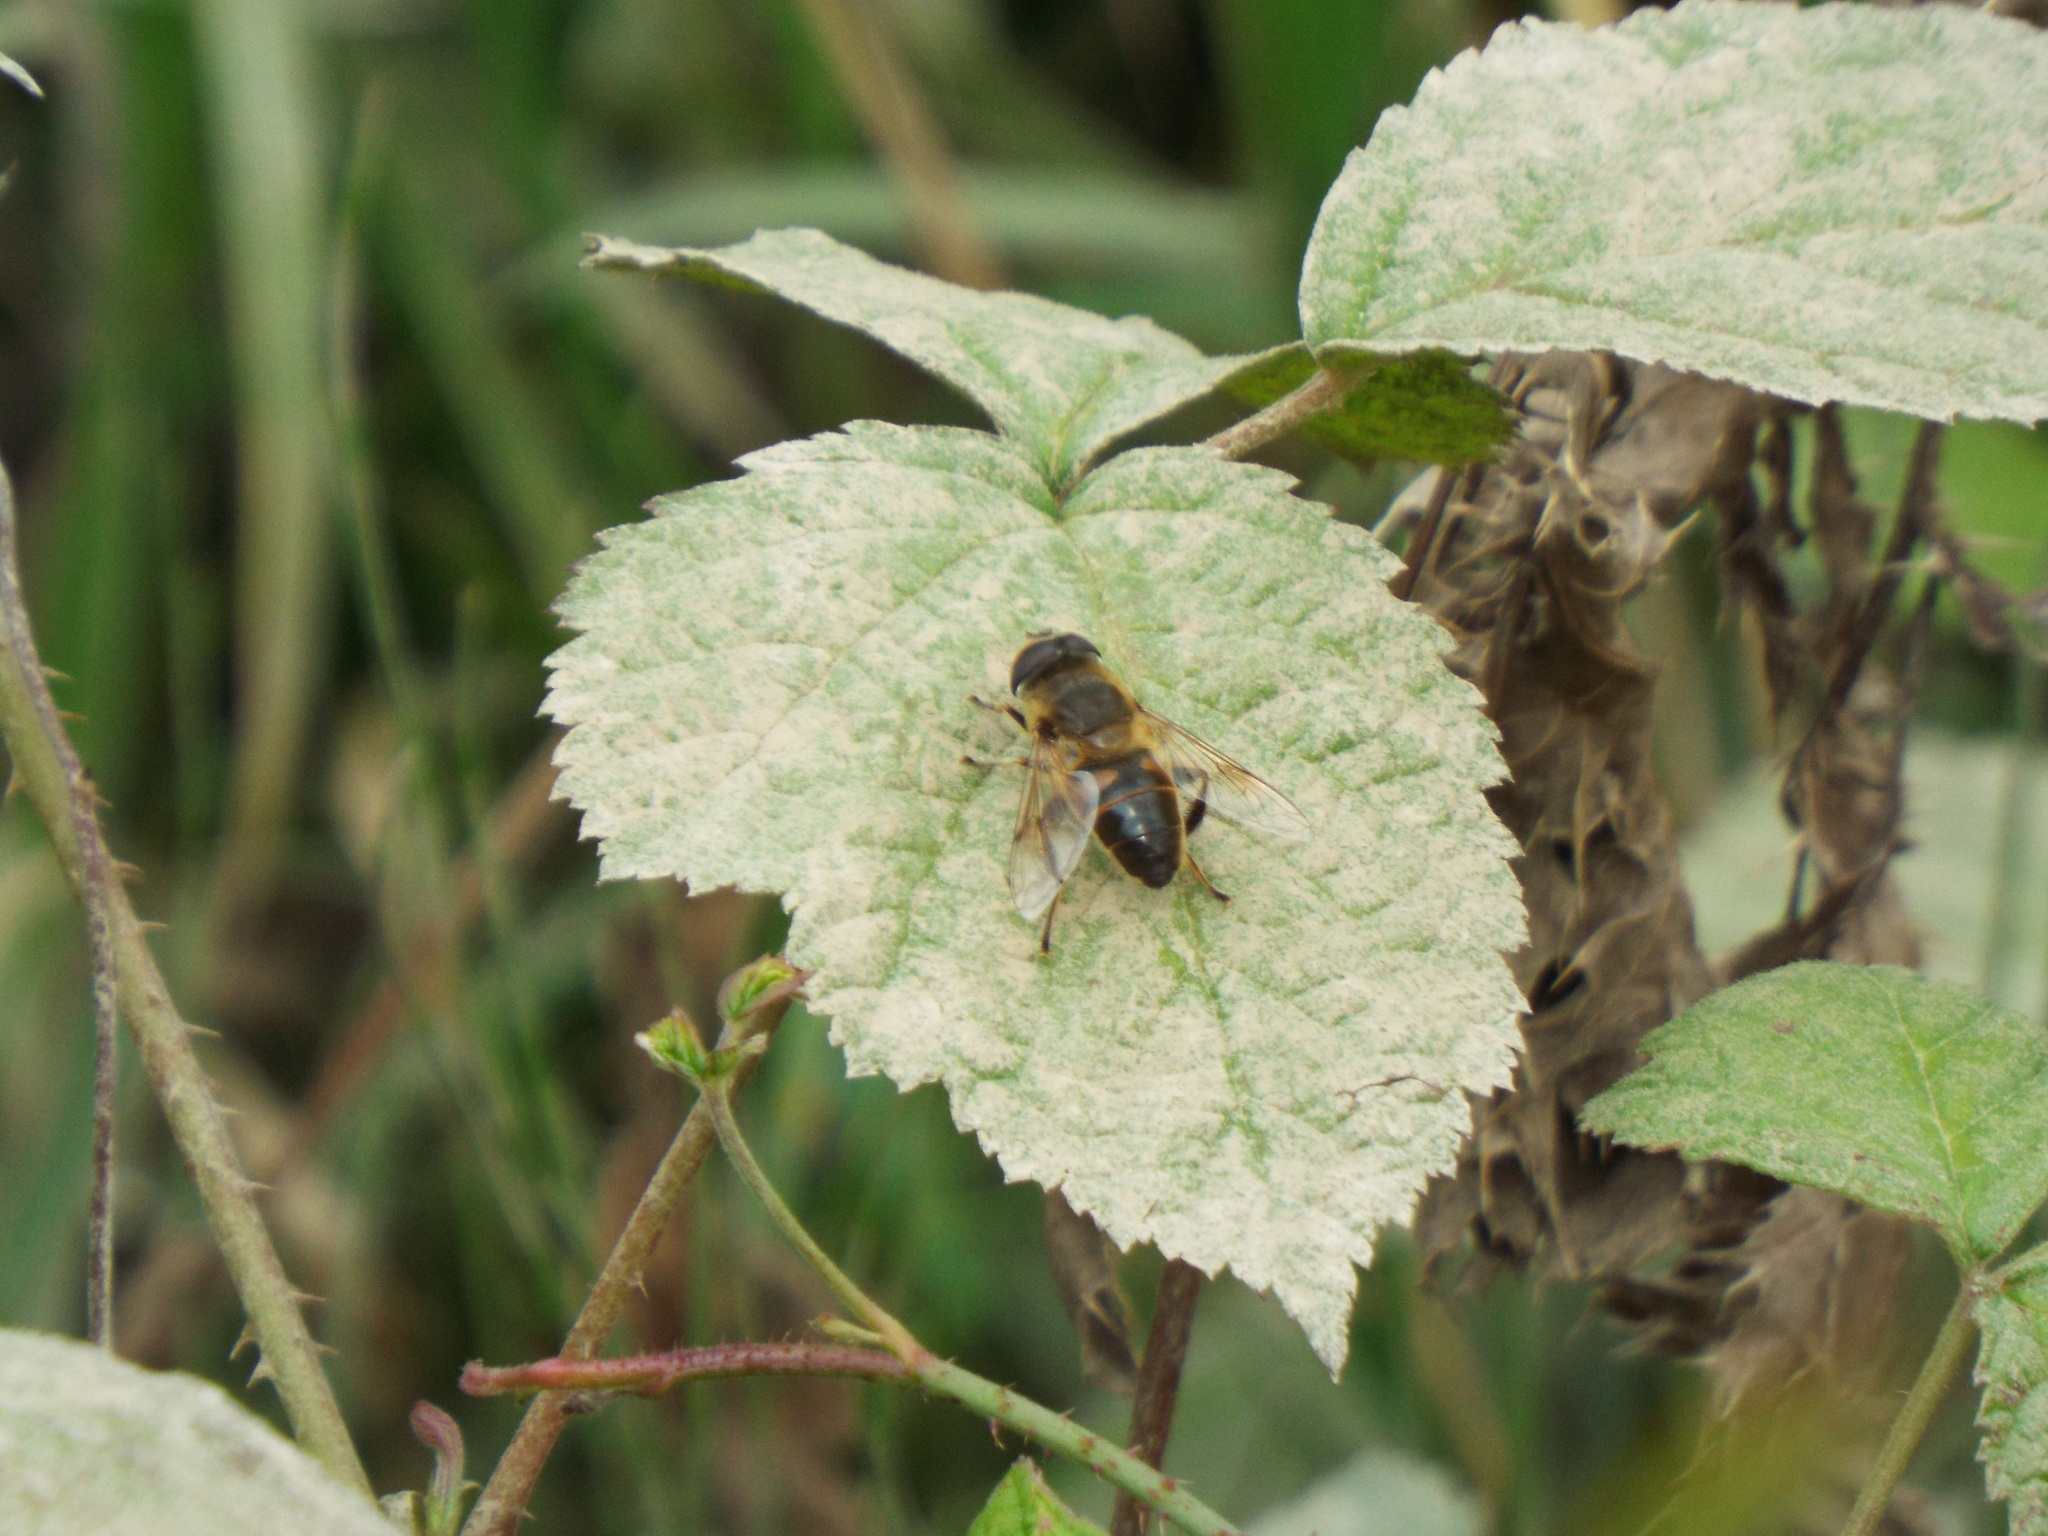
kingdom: Animalia
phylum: Arthropoda
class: Insecta
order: Diptera
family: Syrphidae
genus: Eristalis
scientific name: Eristalis tenax
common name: Drone fly
